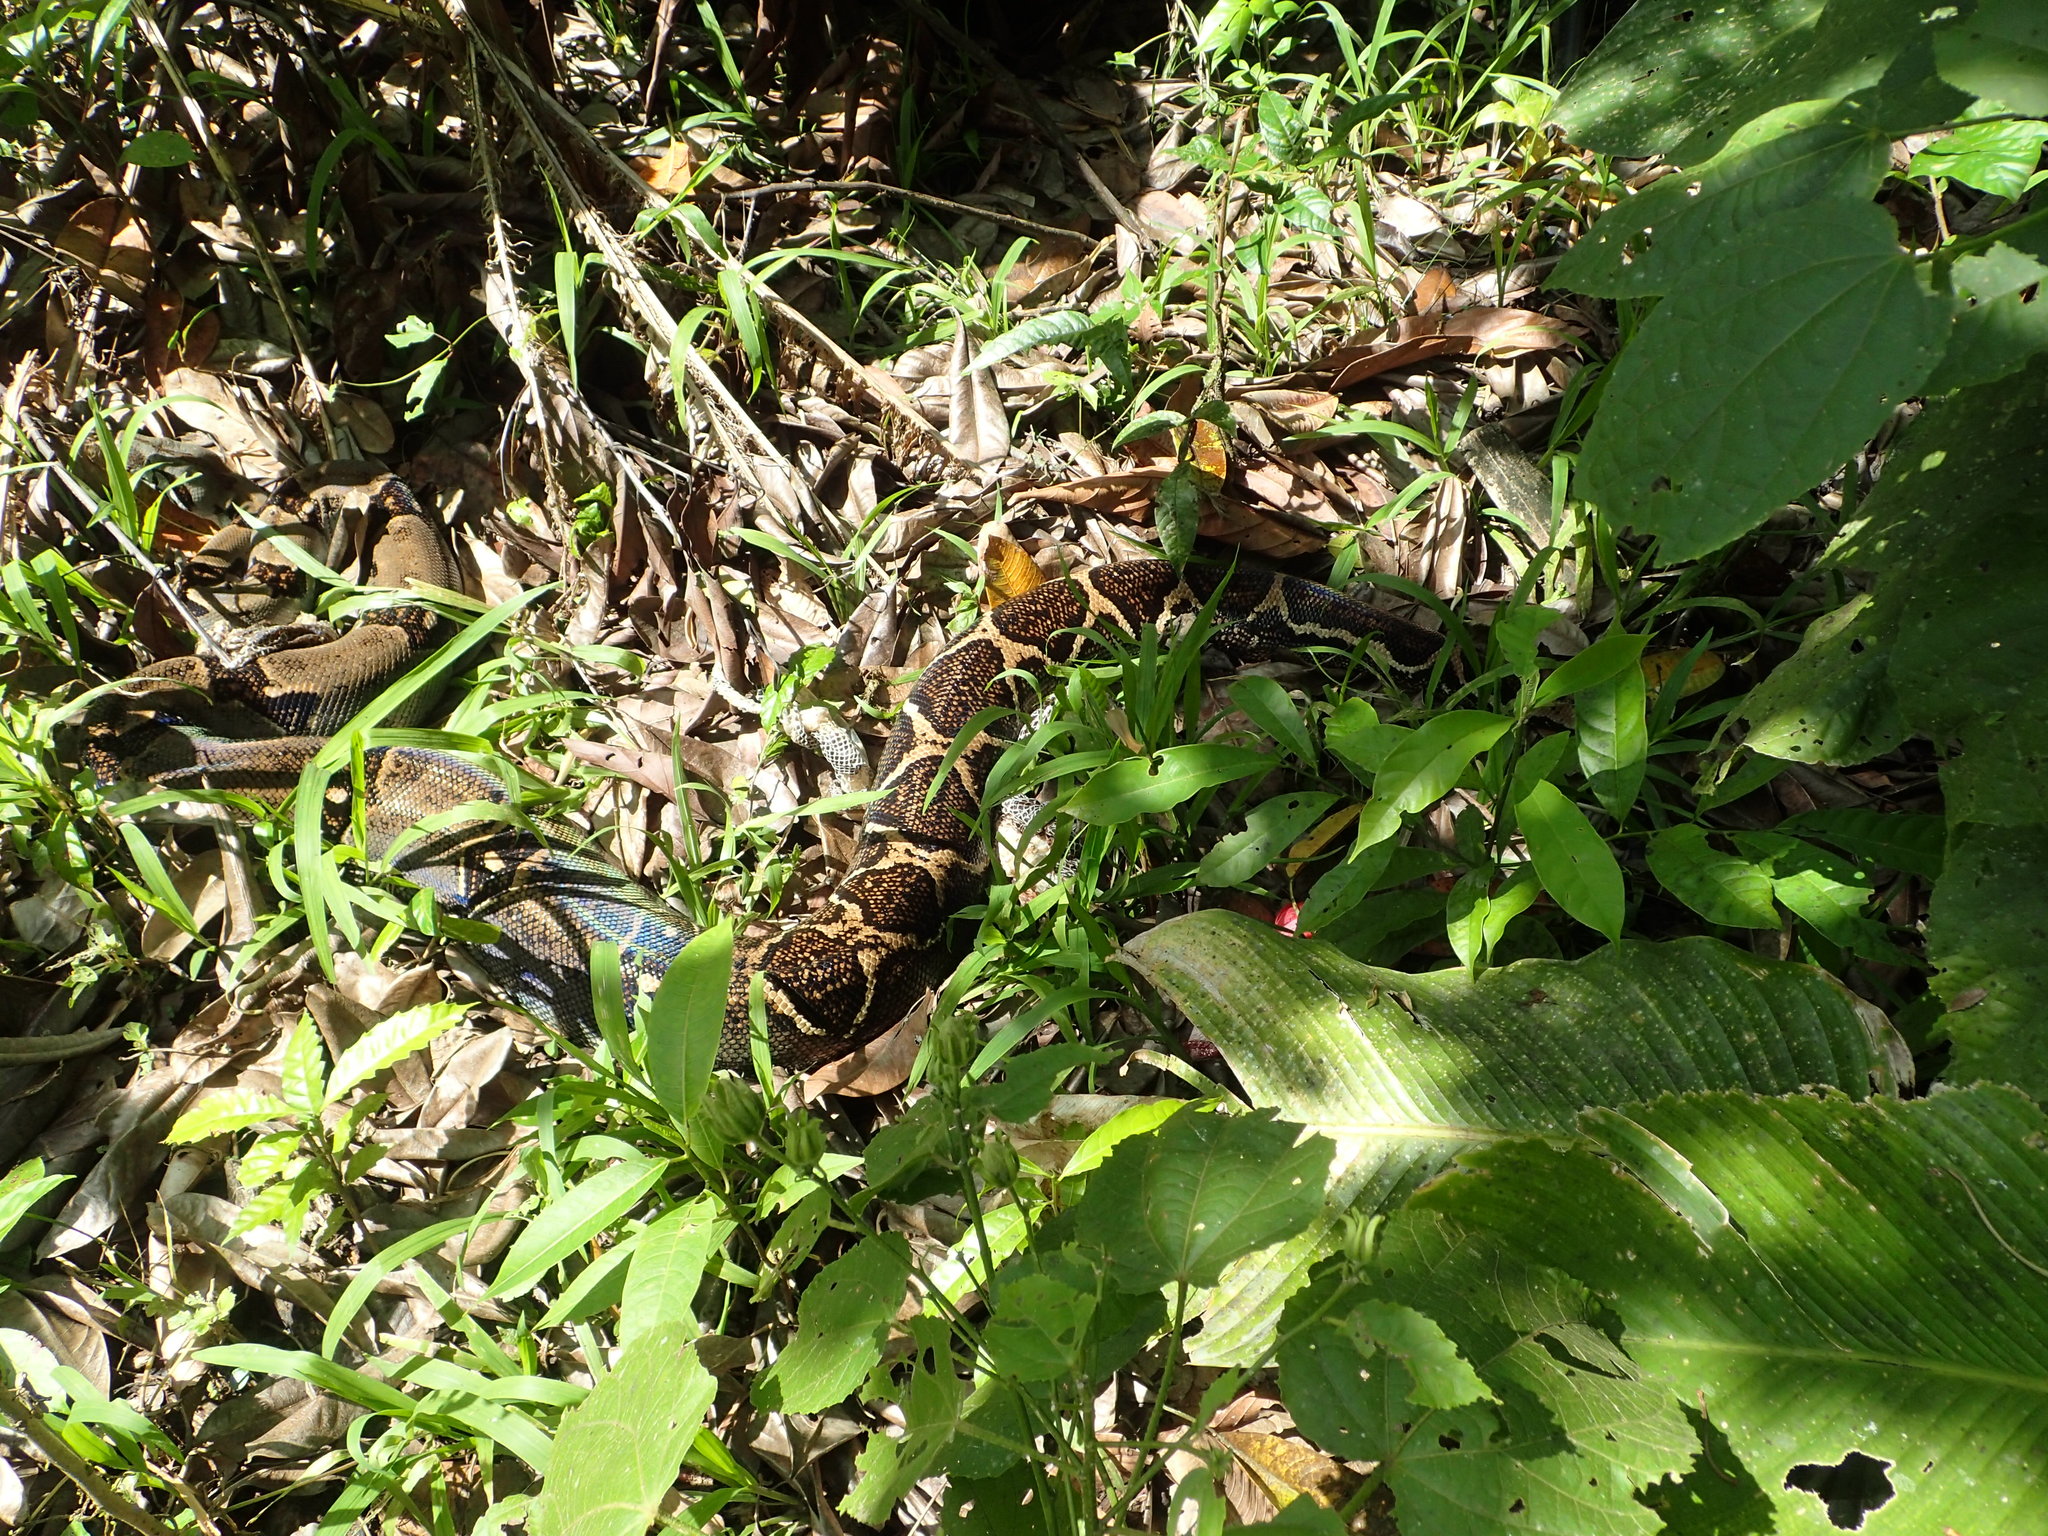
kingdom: Animalia
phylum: Chordata
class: Squamata
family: Boidae
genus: Boa
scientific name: Boa imperator
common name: Central american boa
